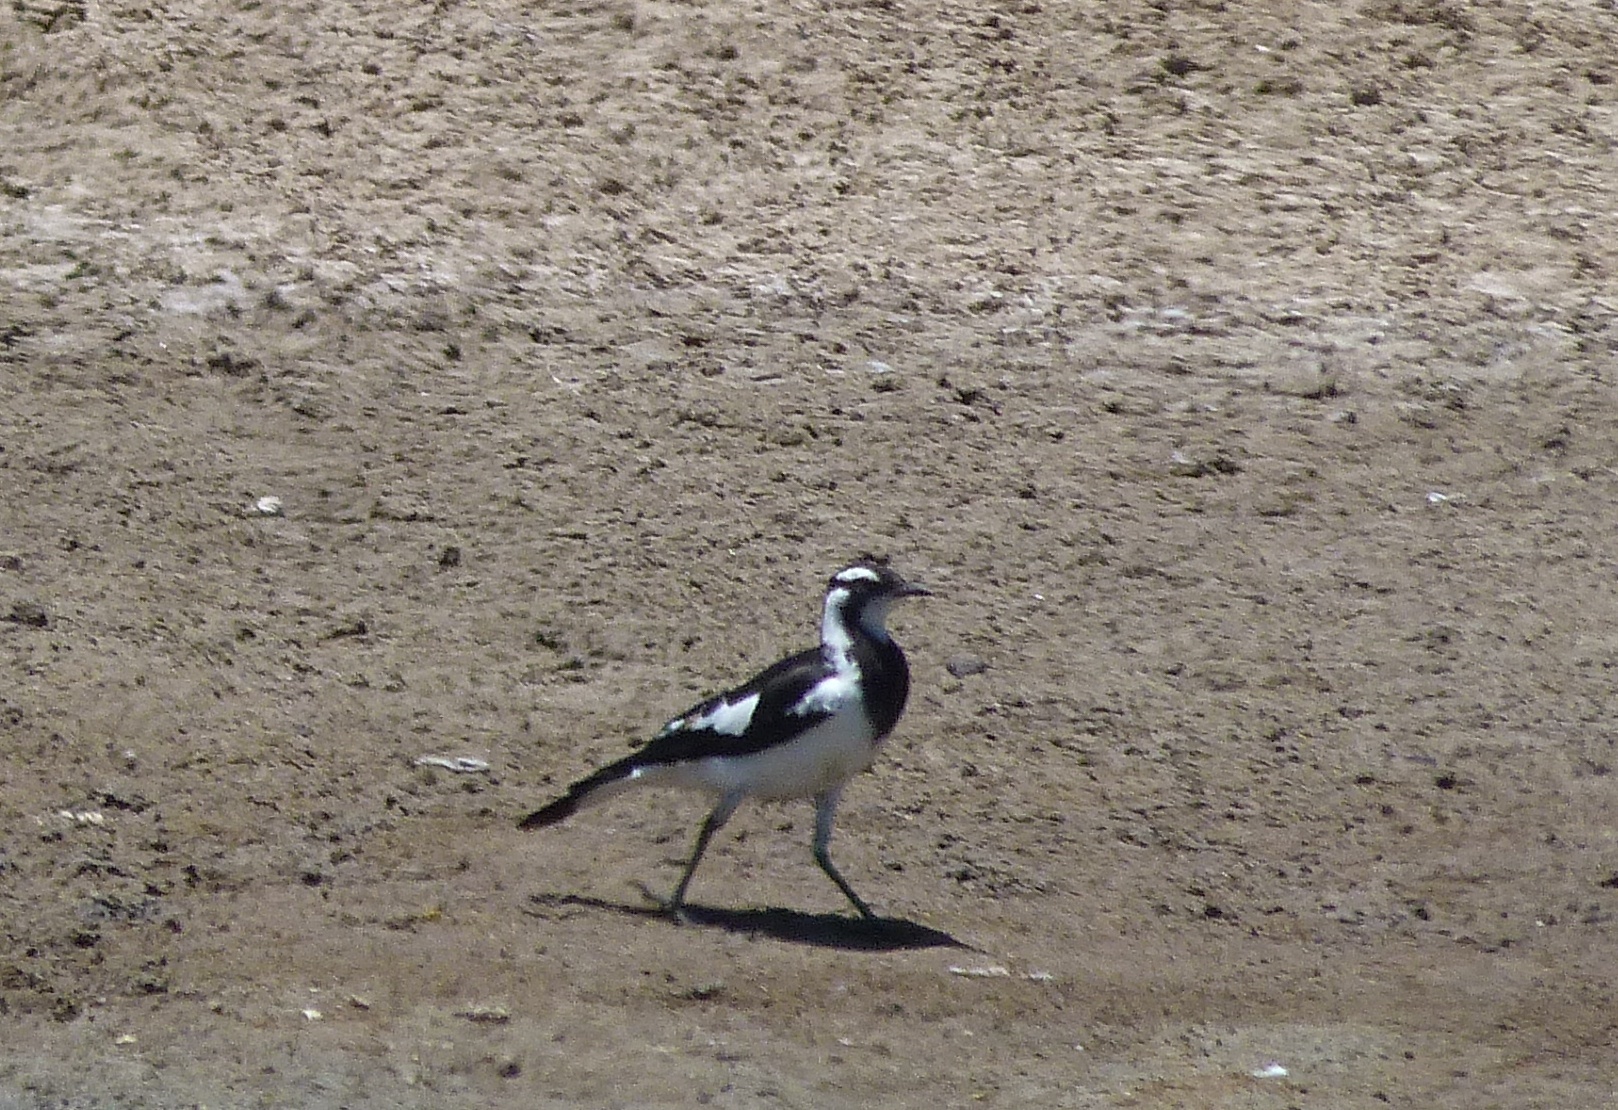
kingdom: Animalia
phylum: Chordata
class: Aves
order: Passeriformes
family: Monarchidae
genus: Grallina
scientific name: Grallina cyanoleuca
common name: Magpie-lark
